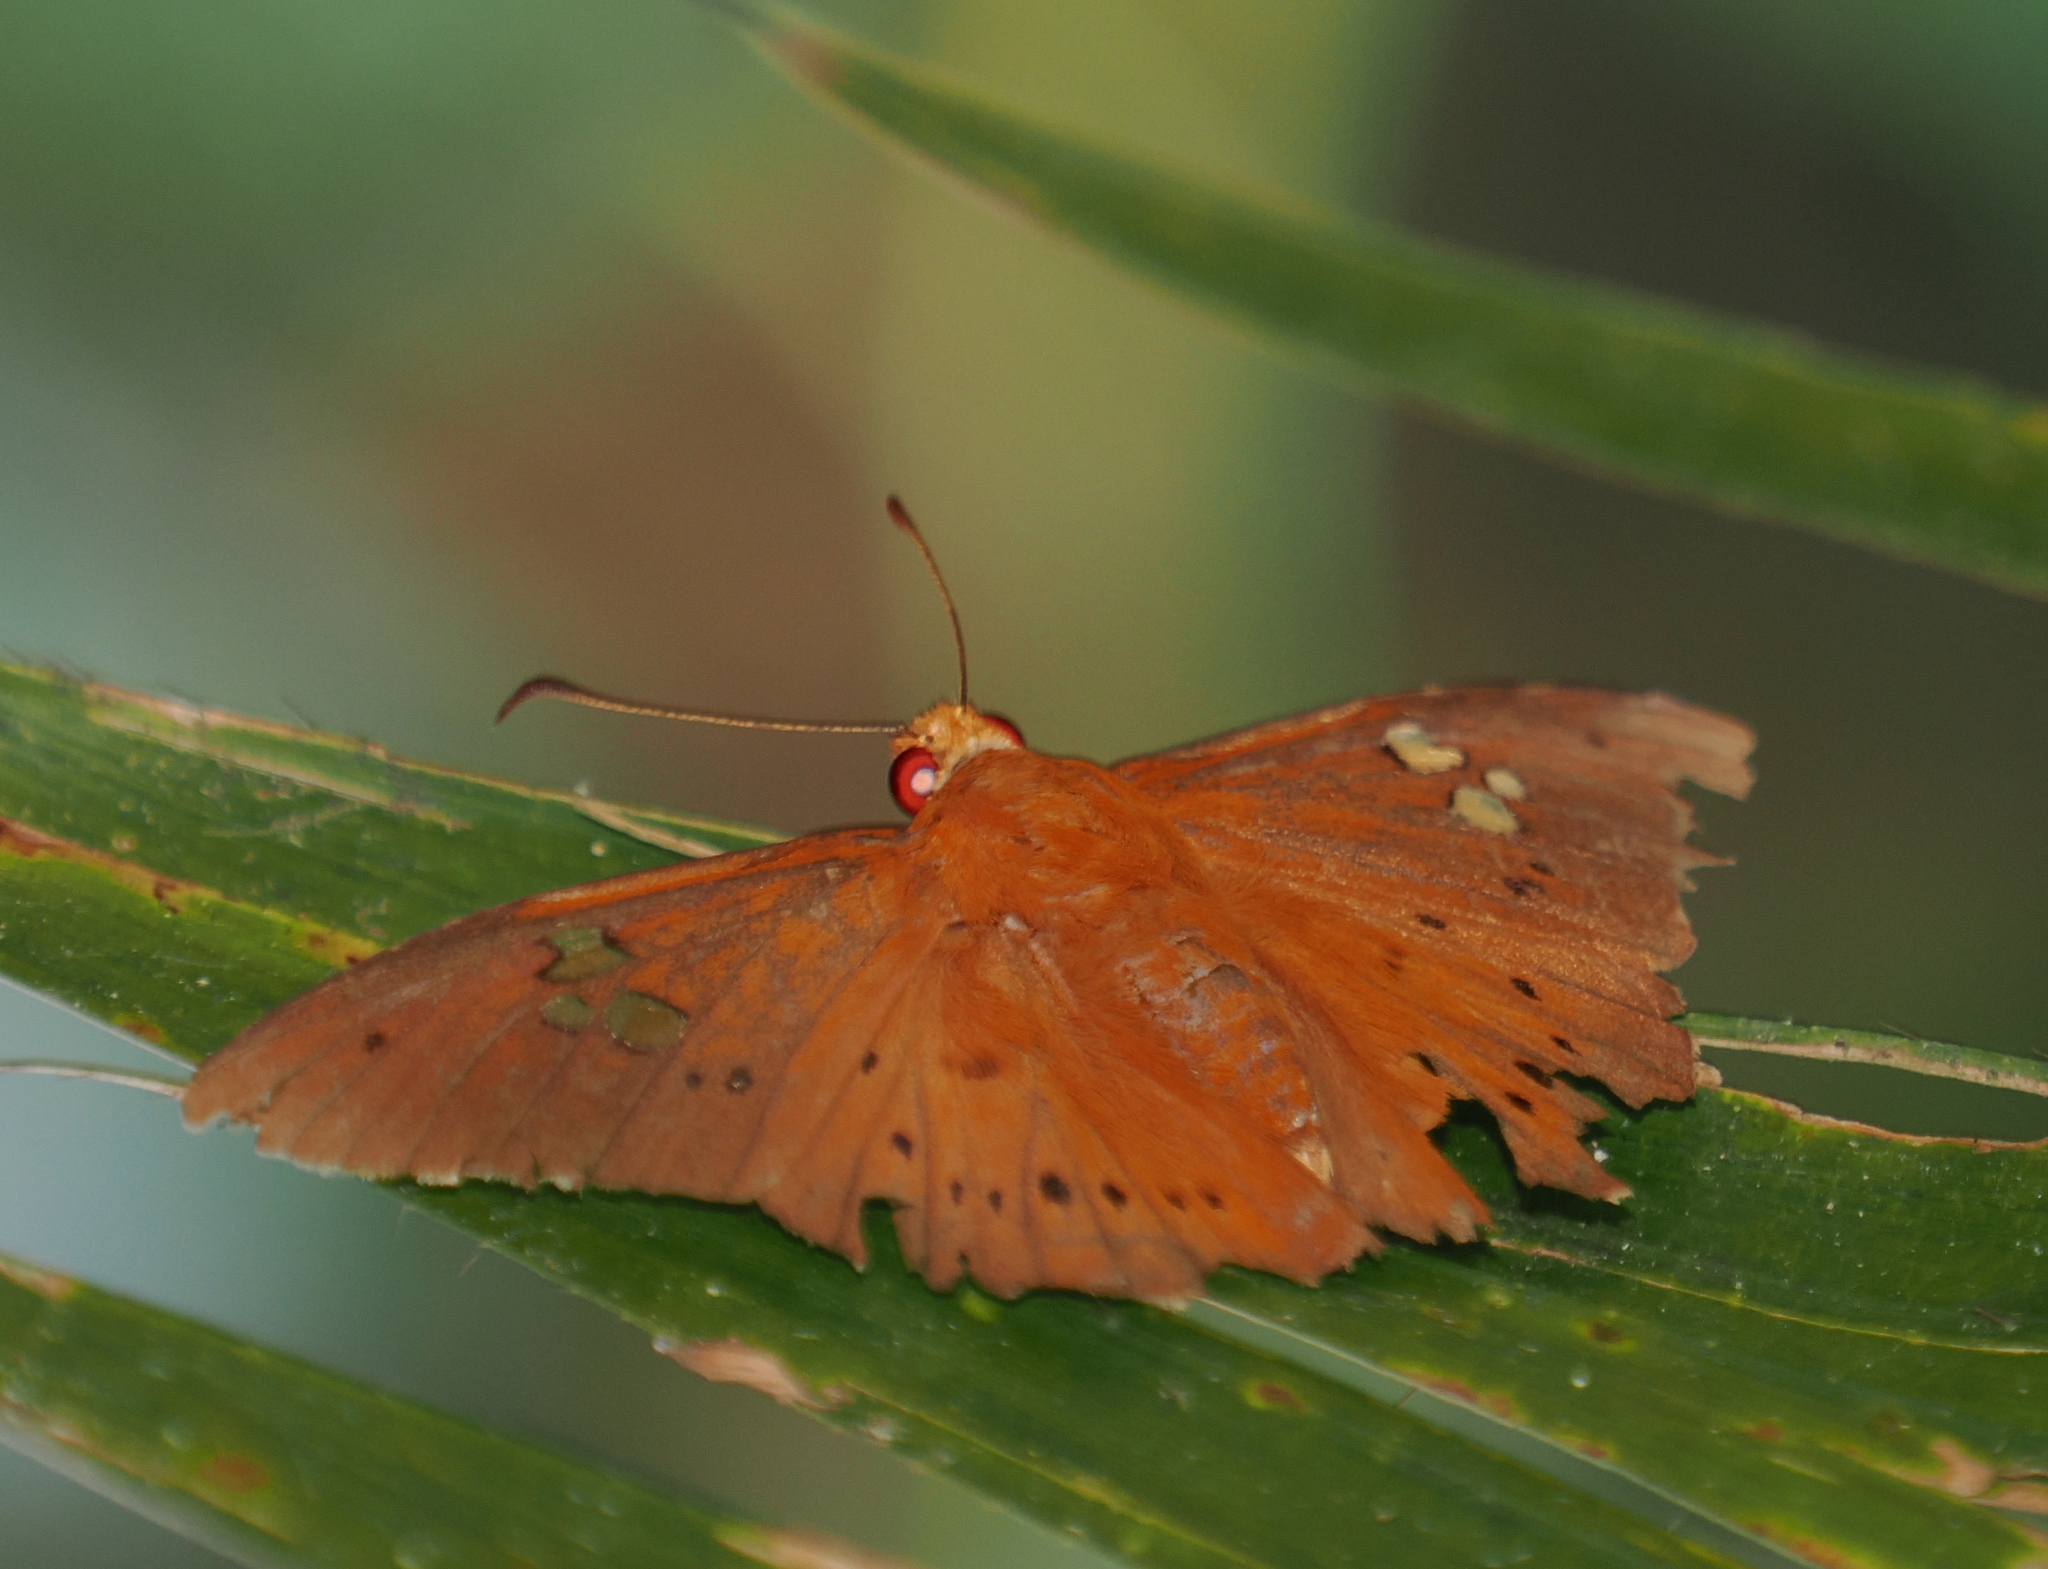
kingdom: Animalia
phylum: Arthropoda
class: Insecta
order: Lepidoptera
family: Hesperiidae
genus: Capila
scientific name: Capila phanaeus
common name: Fulvous dawnfly
